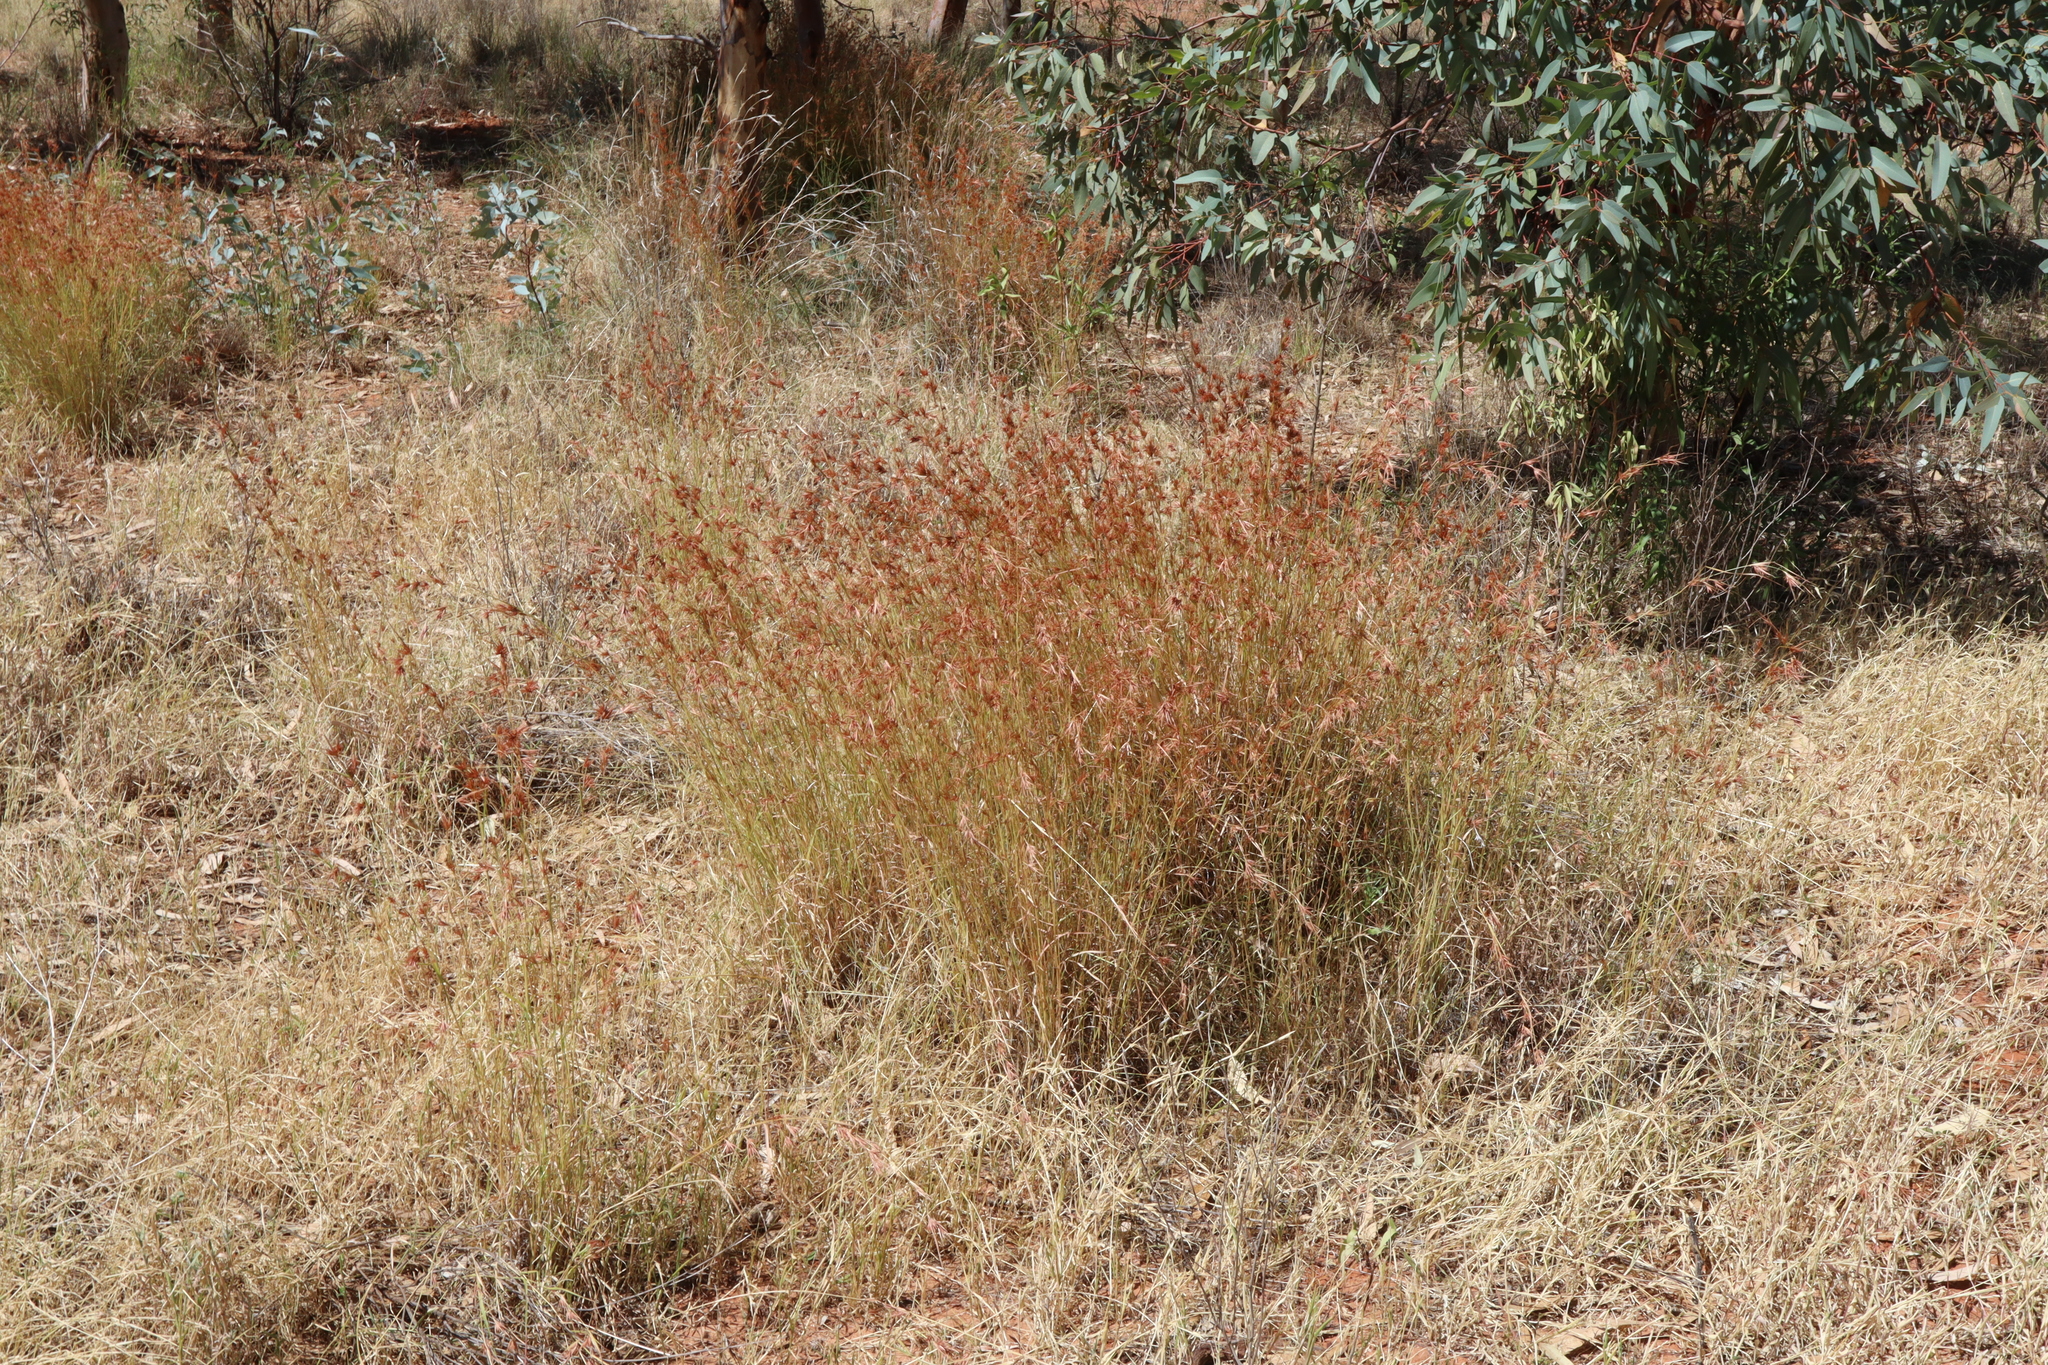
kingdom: Plantae
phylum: Tracheophyta
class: Liliopsida
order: Poales
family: Poaceae
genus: Themeda
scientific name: Themeda triandra
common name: Kangaroo grass
